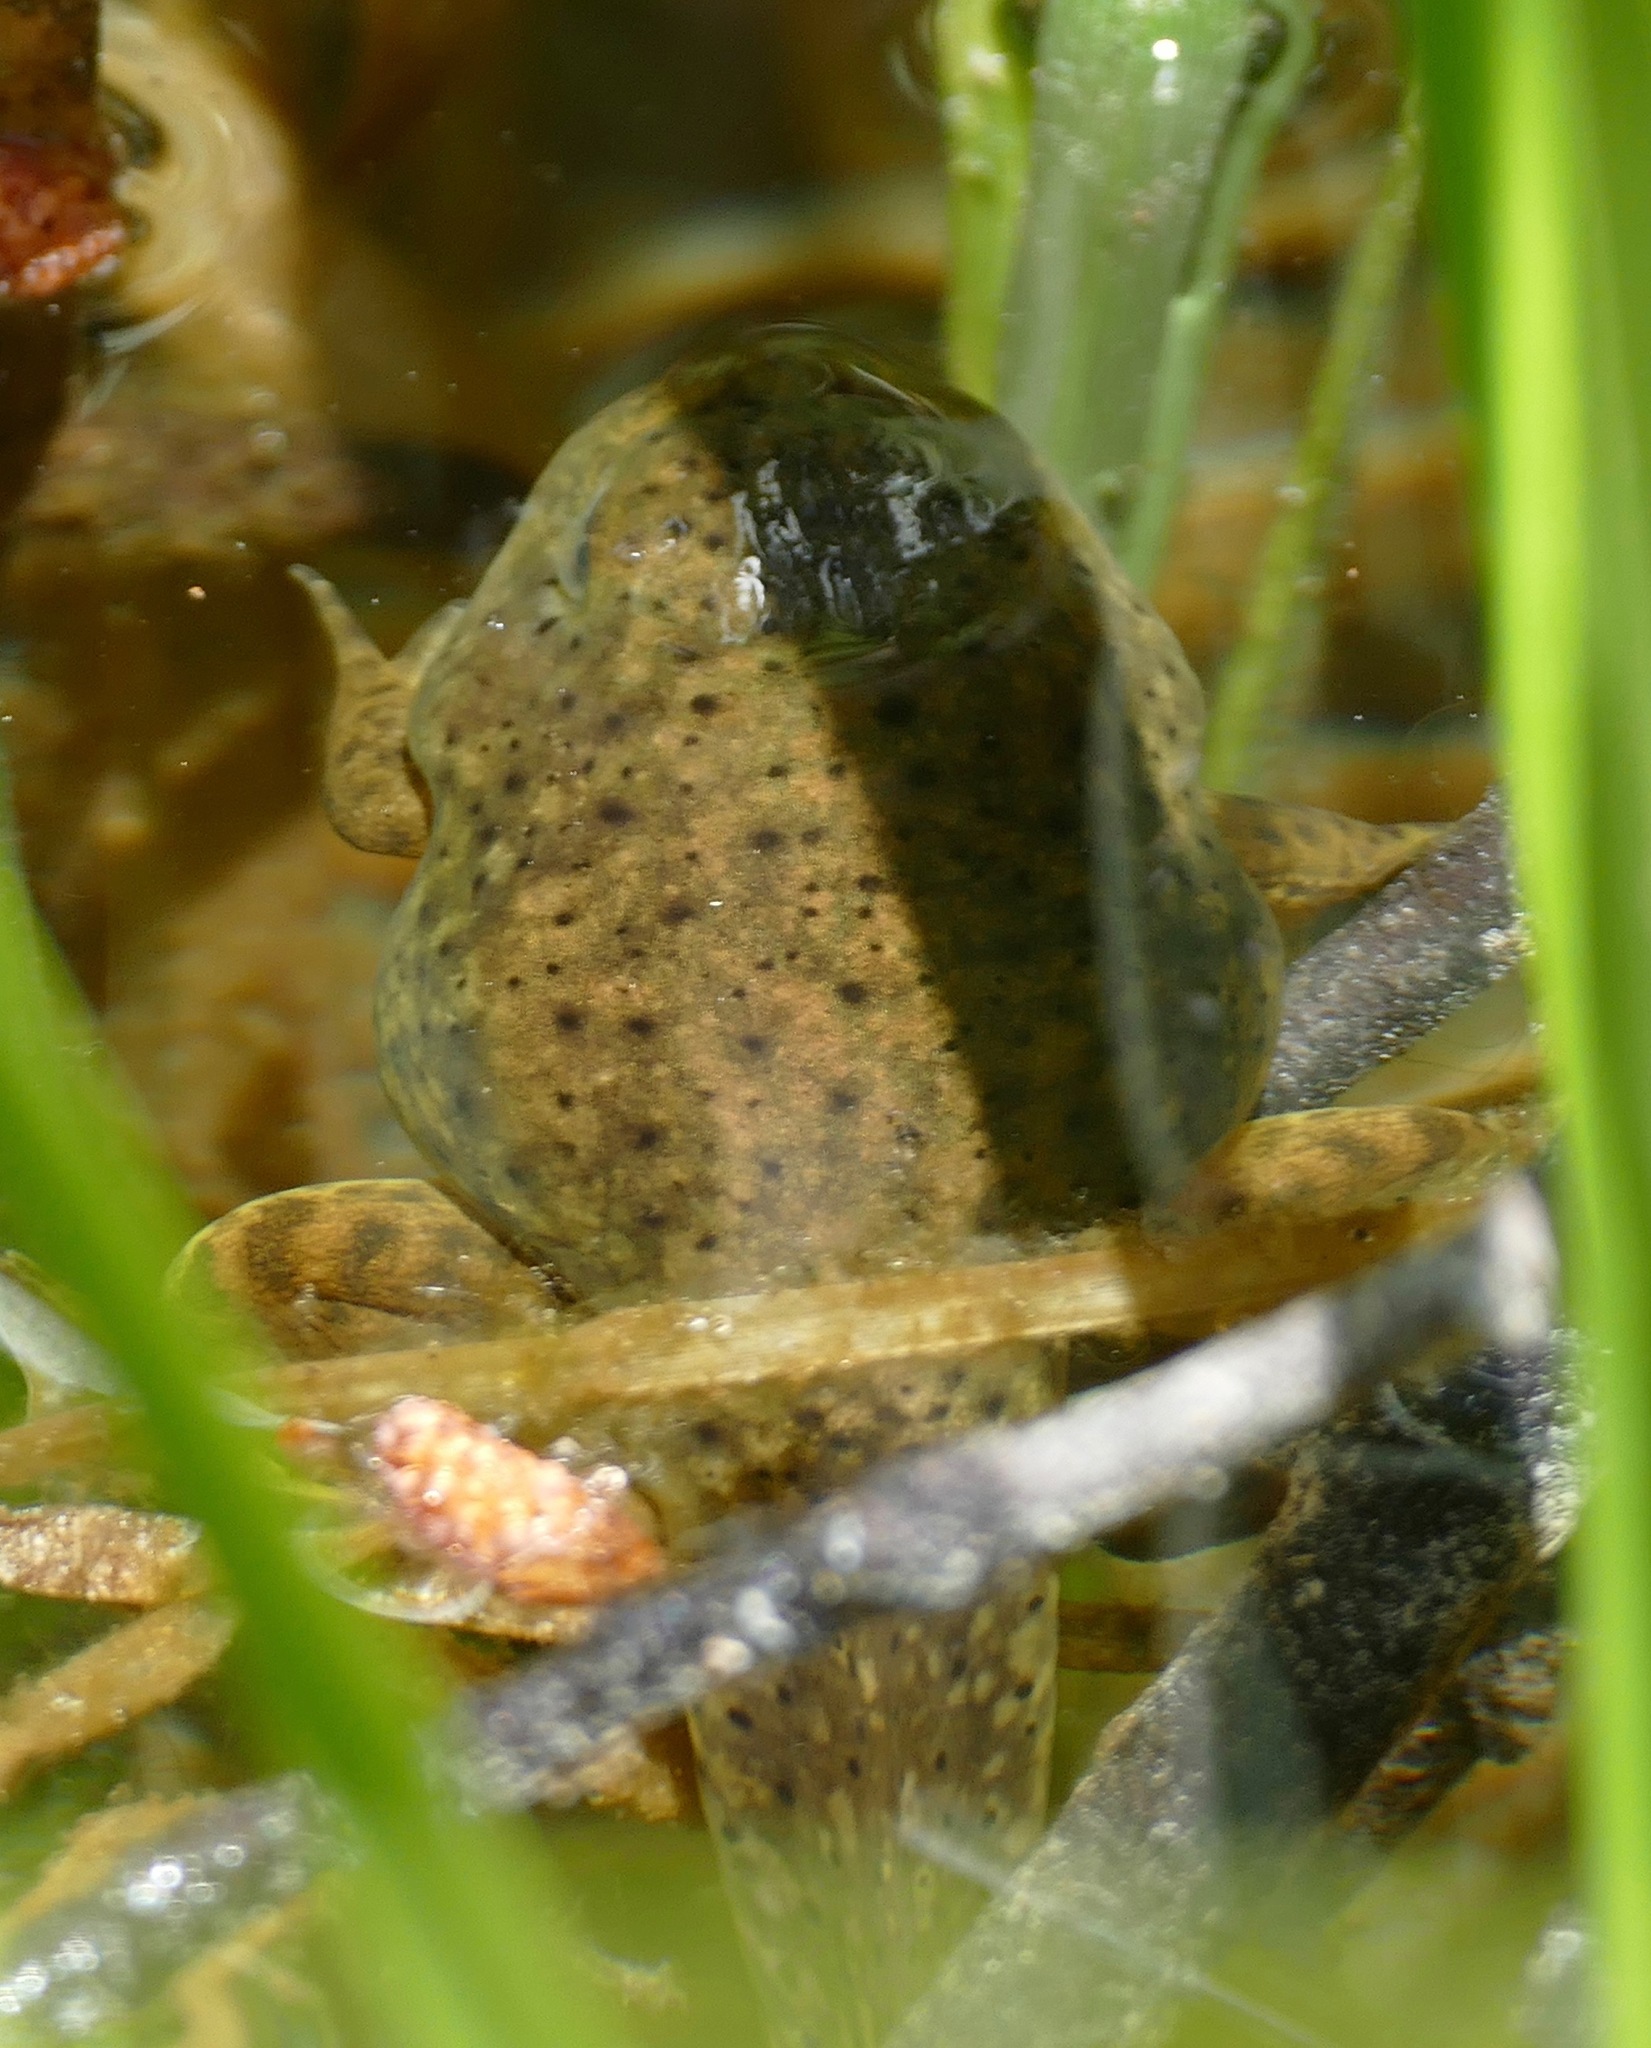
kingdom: Animalia
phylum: Chordata
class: Amphibia
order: Anura
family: Ranidae
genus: Lithobates
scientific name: Lithobates catesbeianus
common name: American bullfrog
